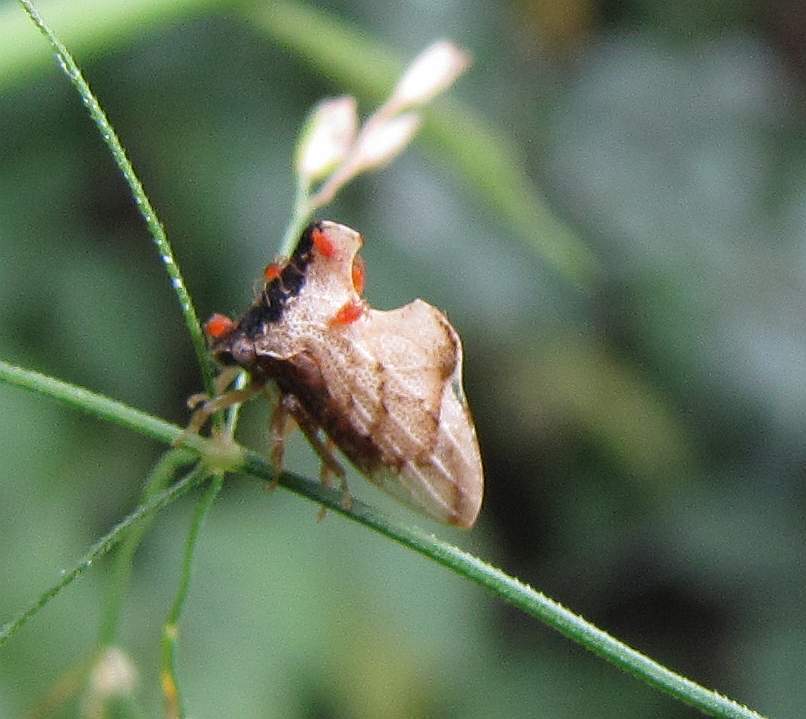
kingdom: Animalia
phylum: Arthropoda
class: Insecta
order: Hemiptera
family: Membracidae
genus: Entylia
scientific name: Entylia carinata
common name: Keeled treehopper
